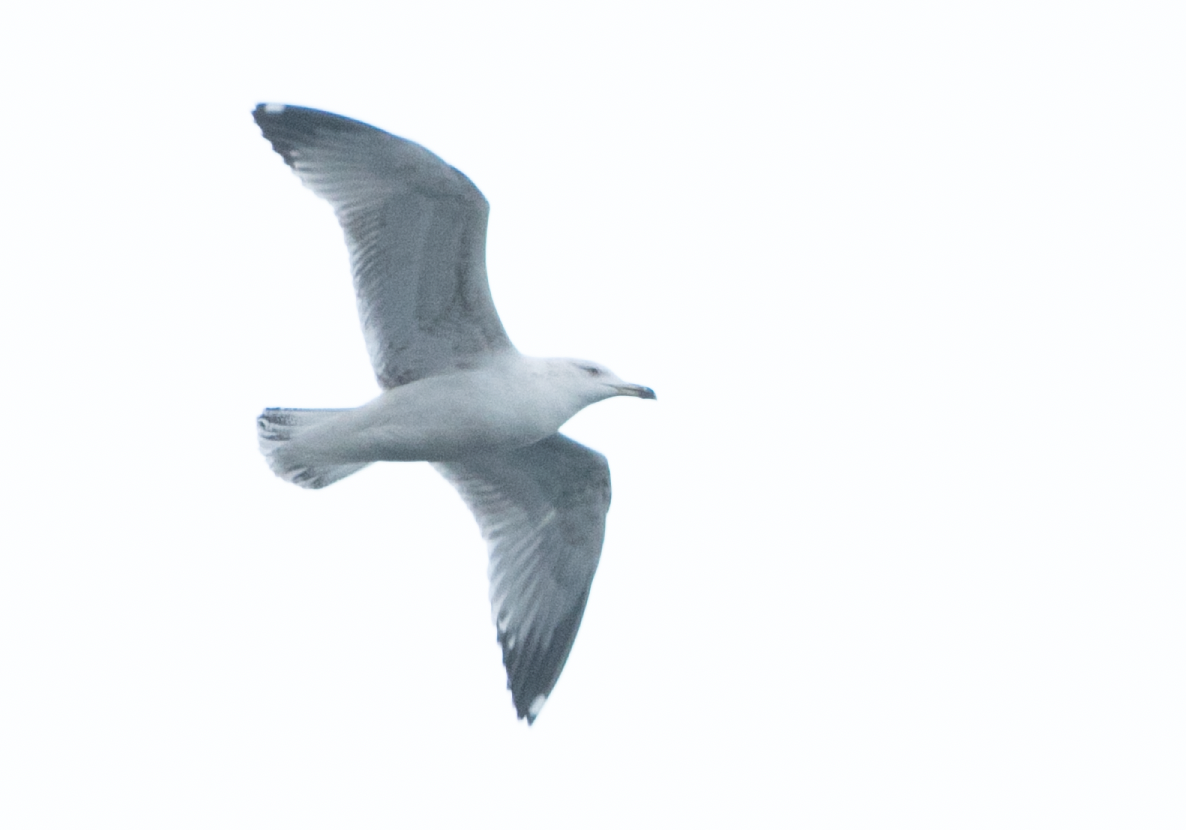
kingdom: Animalia
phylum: Chordata
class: Aves
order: Charadriiformes
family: Laridae
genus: Larus
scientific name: Larus michahellis
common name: Yellow-legged gull
